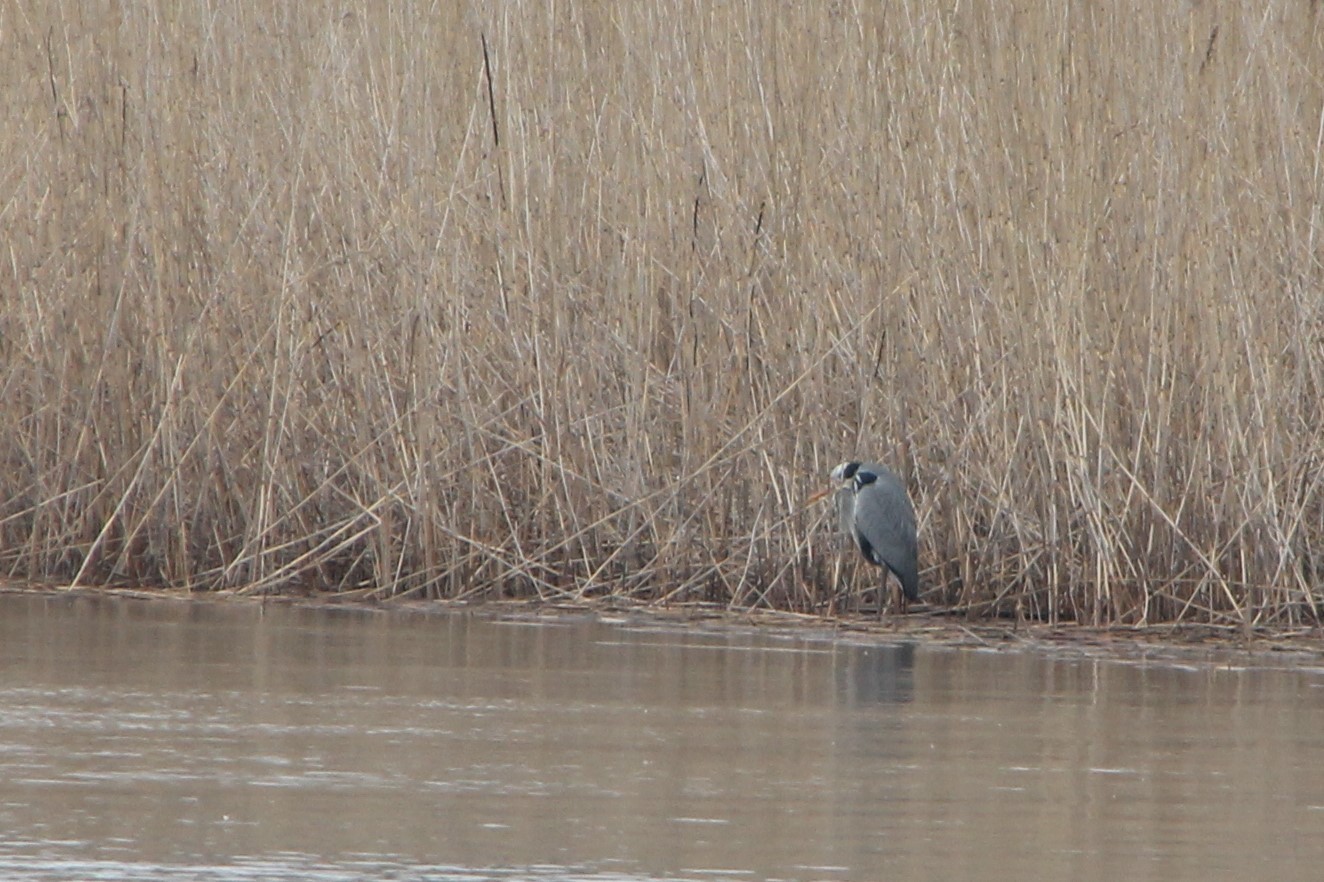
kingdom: Animalia
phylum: Chordata
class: Aves
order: Pelecaniformes
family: Ardeidae
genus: Ardea
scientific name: Ardea cinerea
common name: Grey heron
